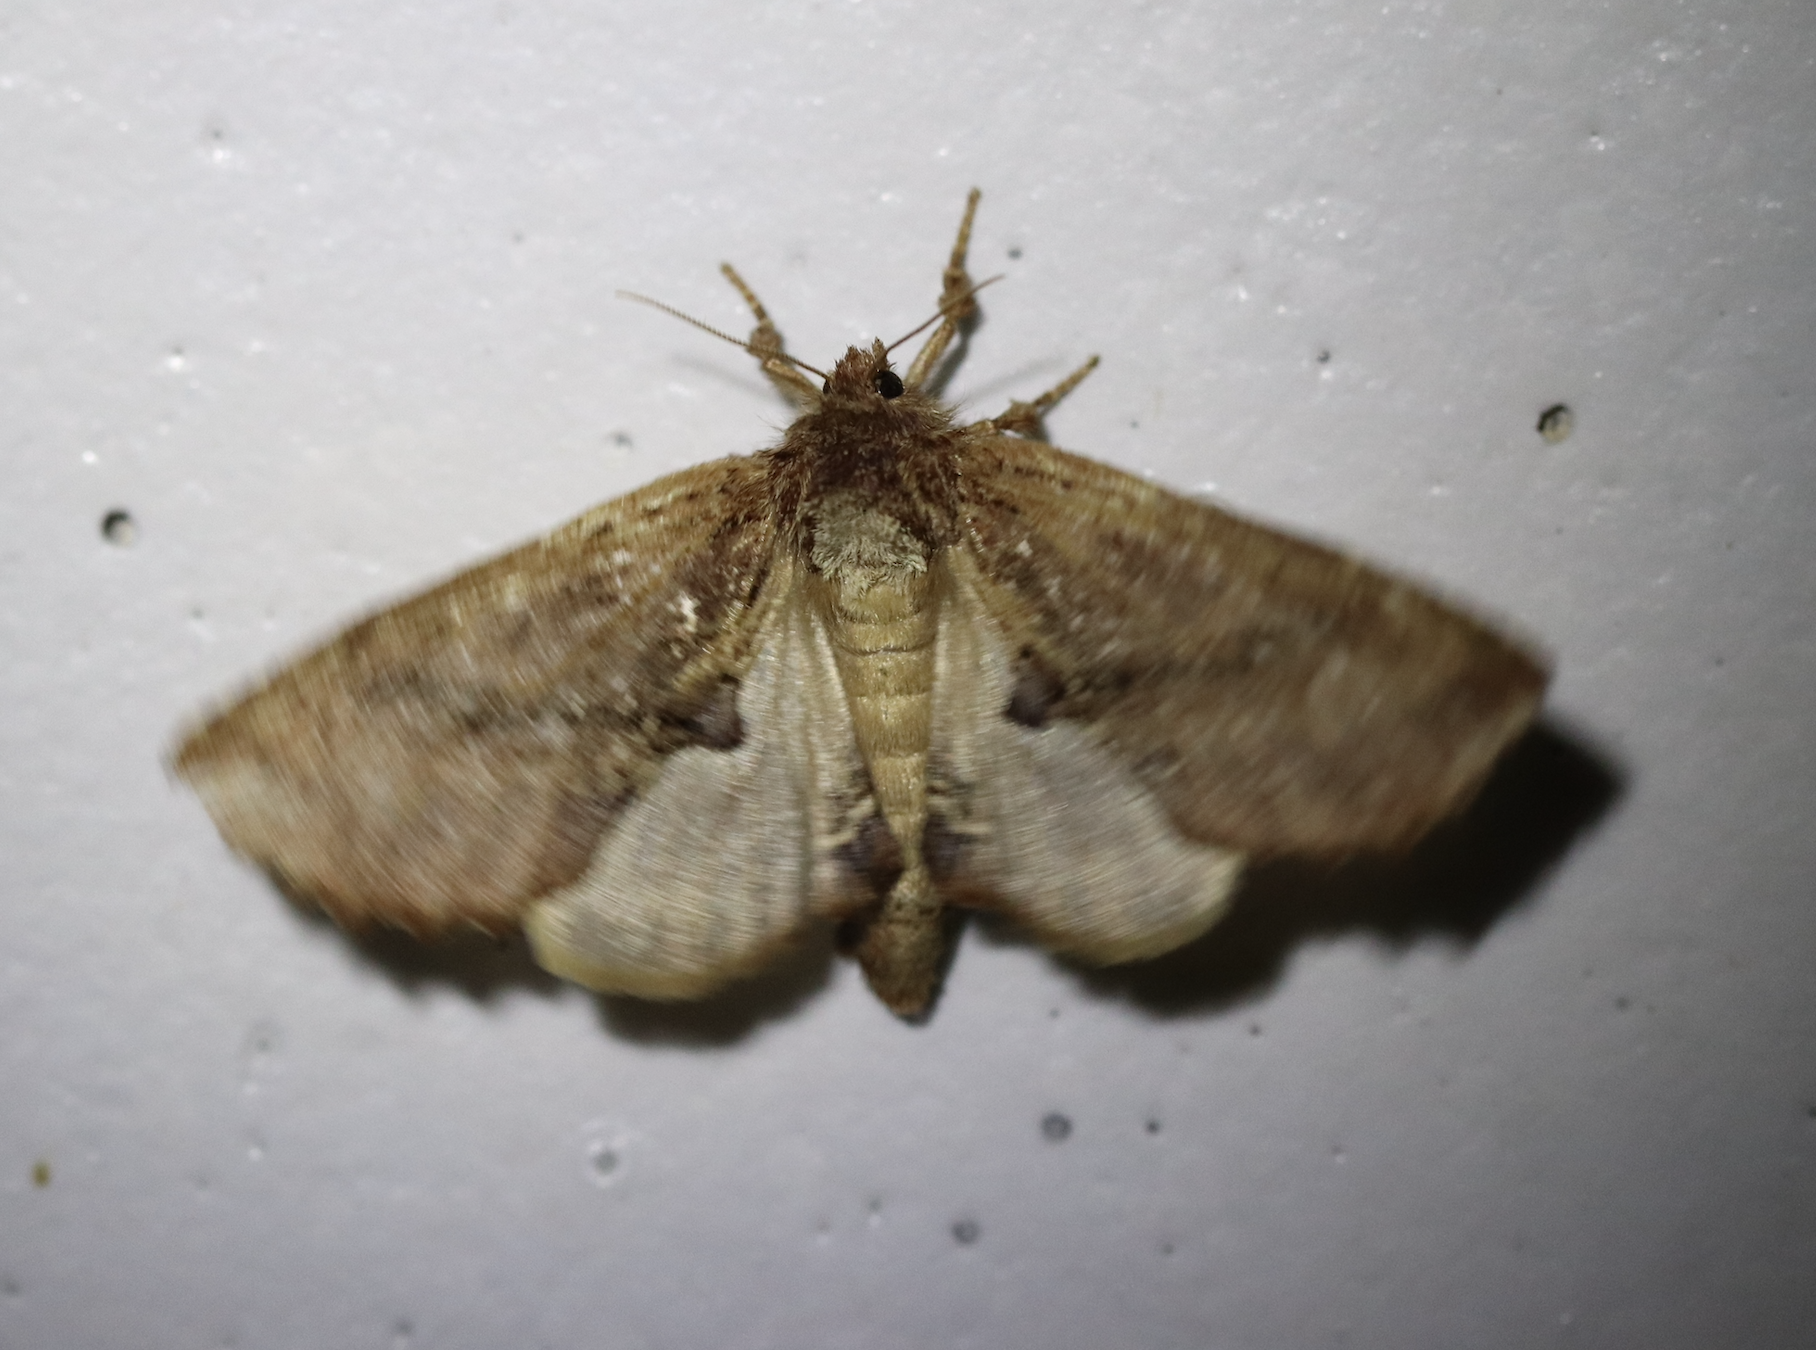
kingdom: Animalia
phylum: Arthropoda
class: Insecta
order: Lepidoptera
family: Notodontidae
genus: Ptilodon
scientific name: Ptilodon capucina
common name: Coxcomb prominent
